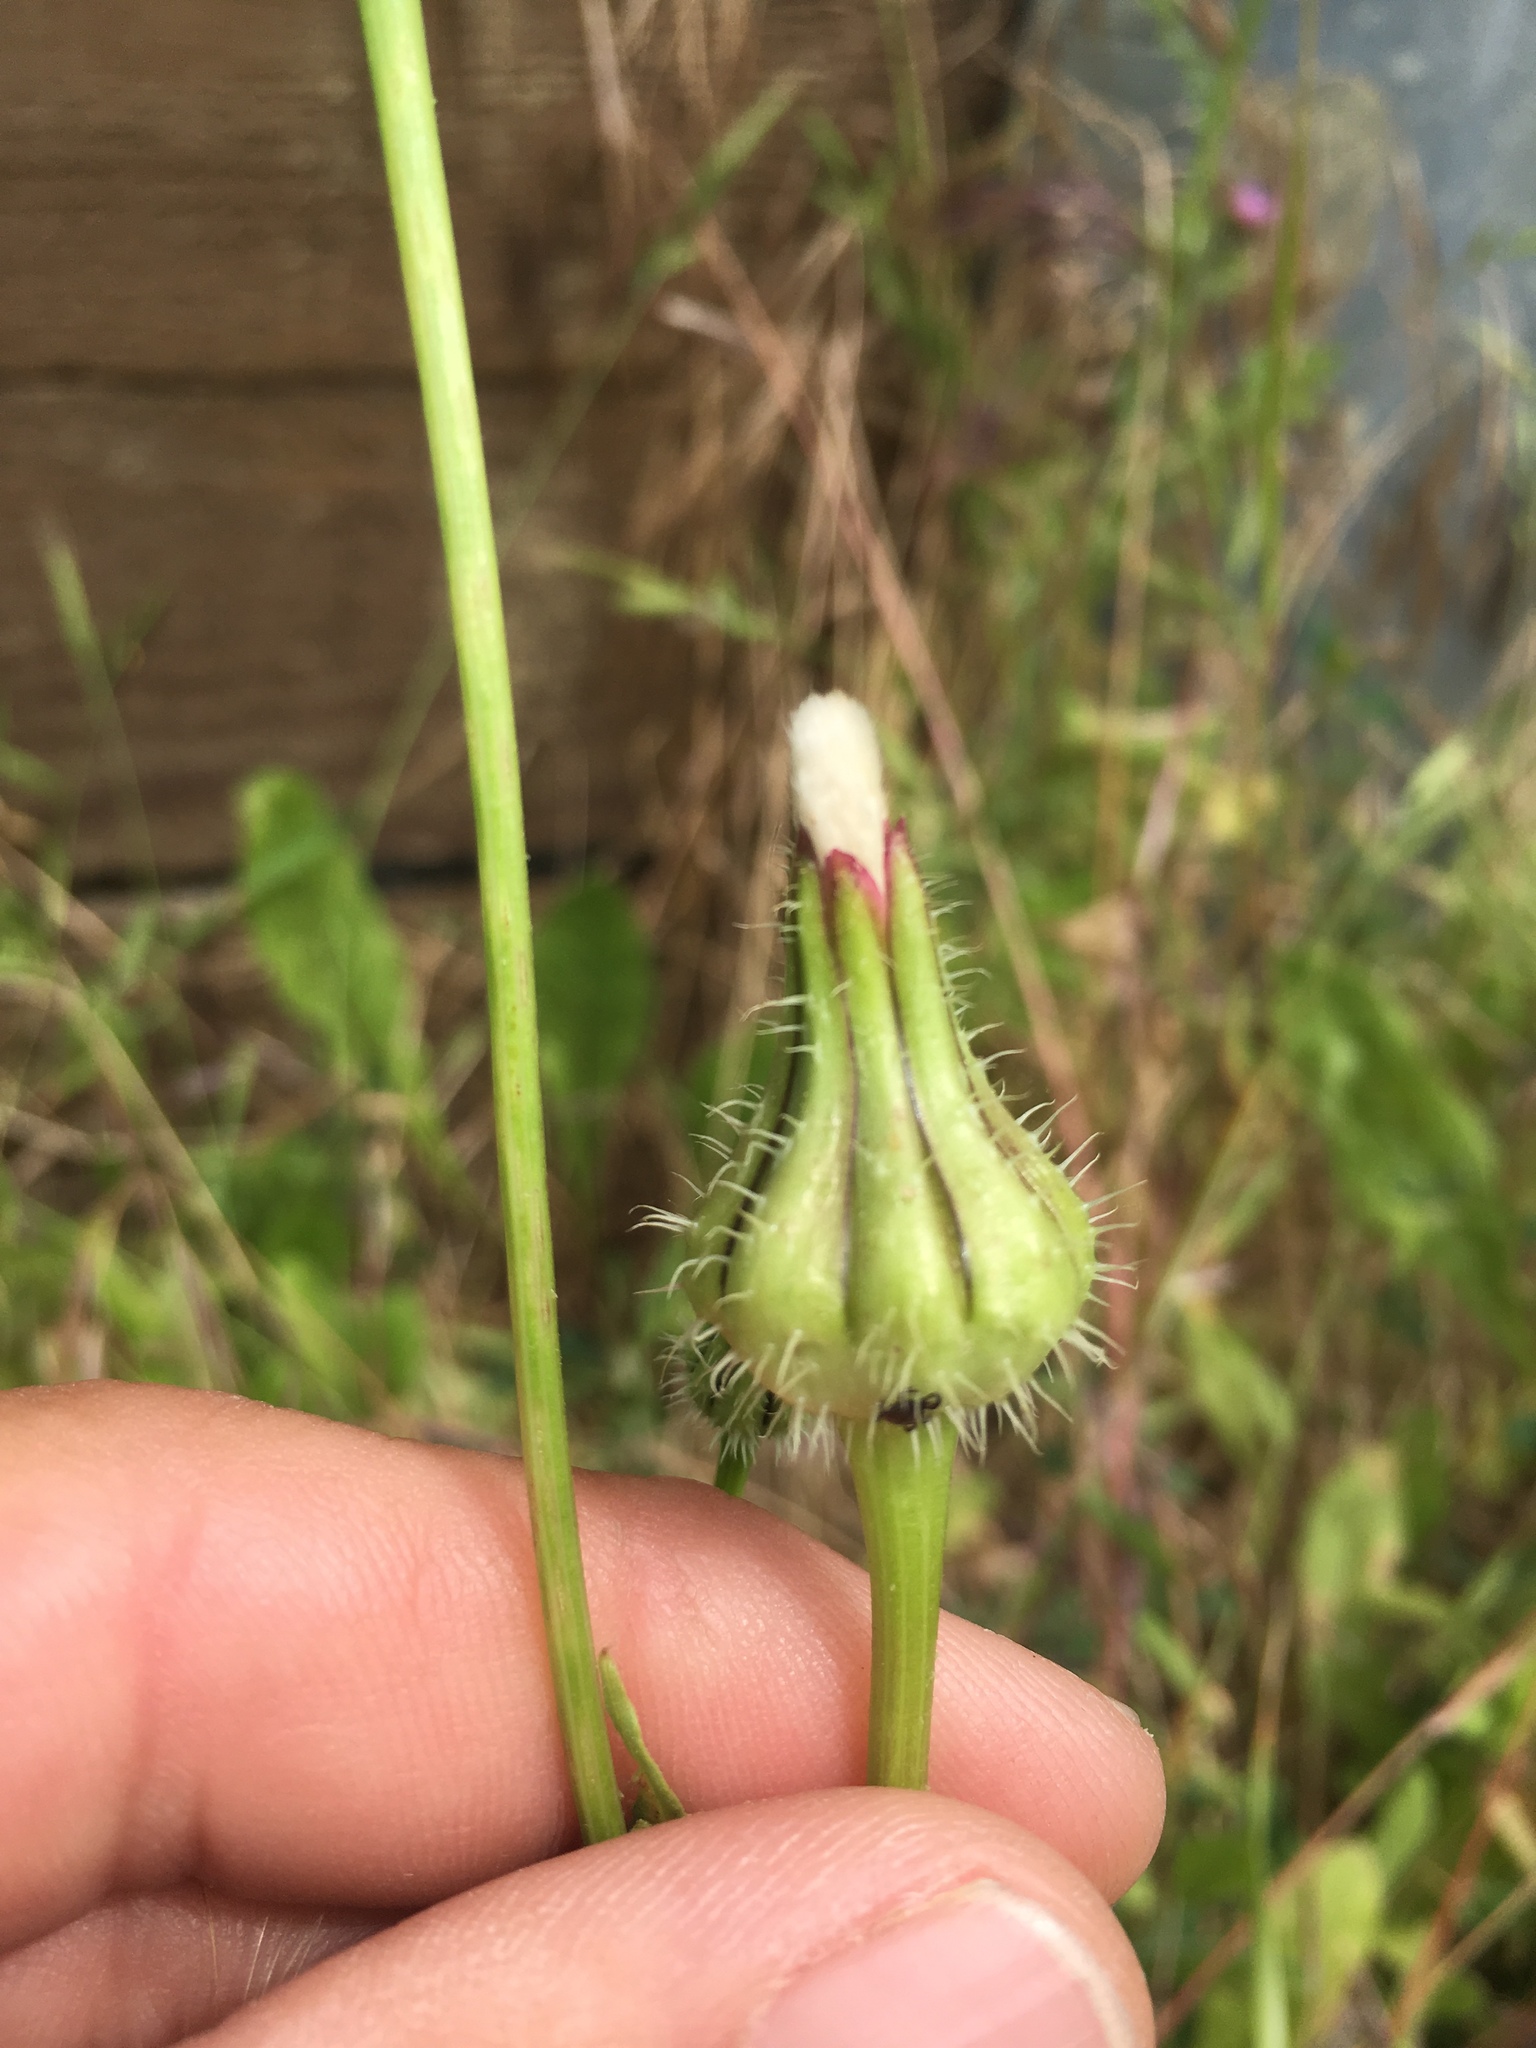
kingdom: Plantae
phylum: Tracheophyta
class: Magnoliopsida
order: Asterales
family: Asteraceae
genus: Urospermum
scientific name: Urospermum picroides
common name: False hawkbit
